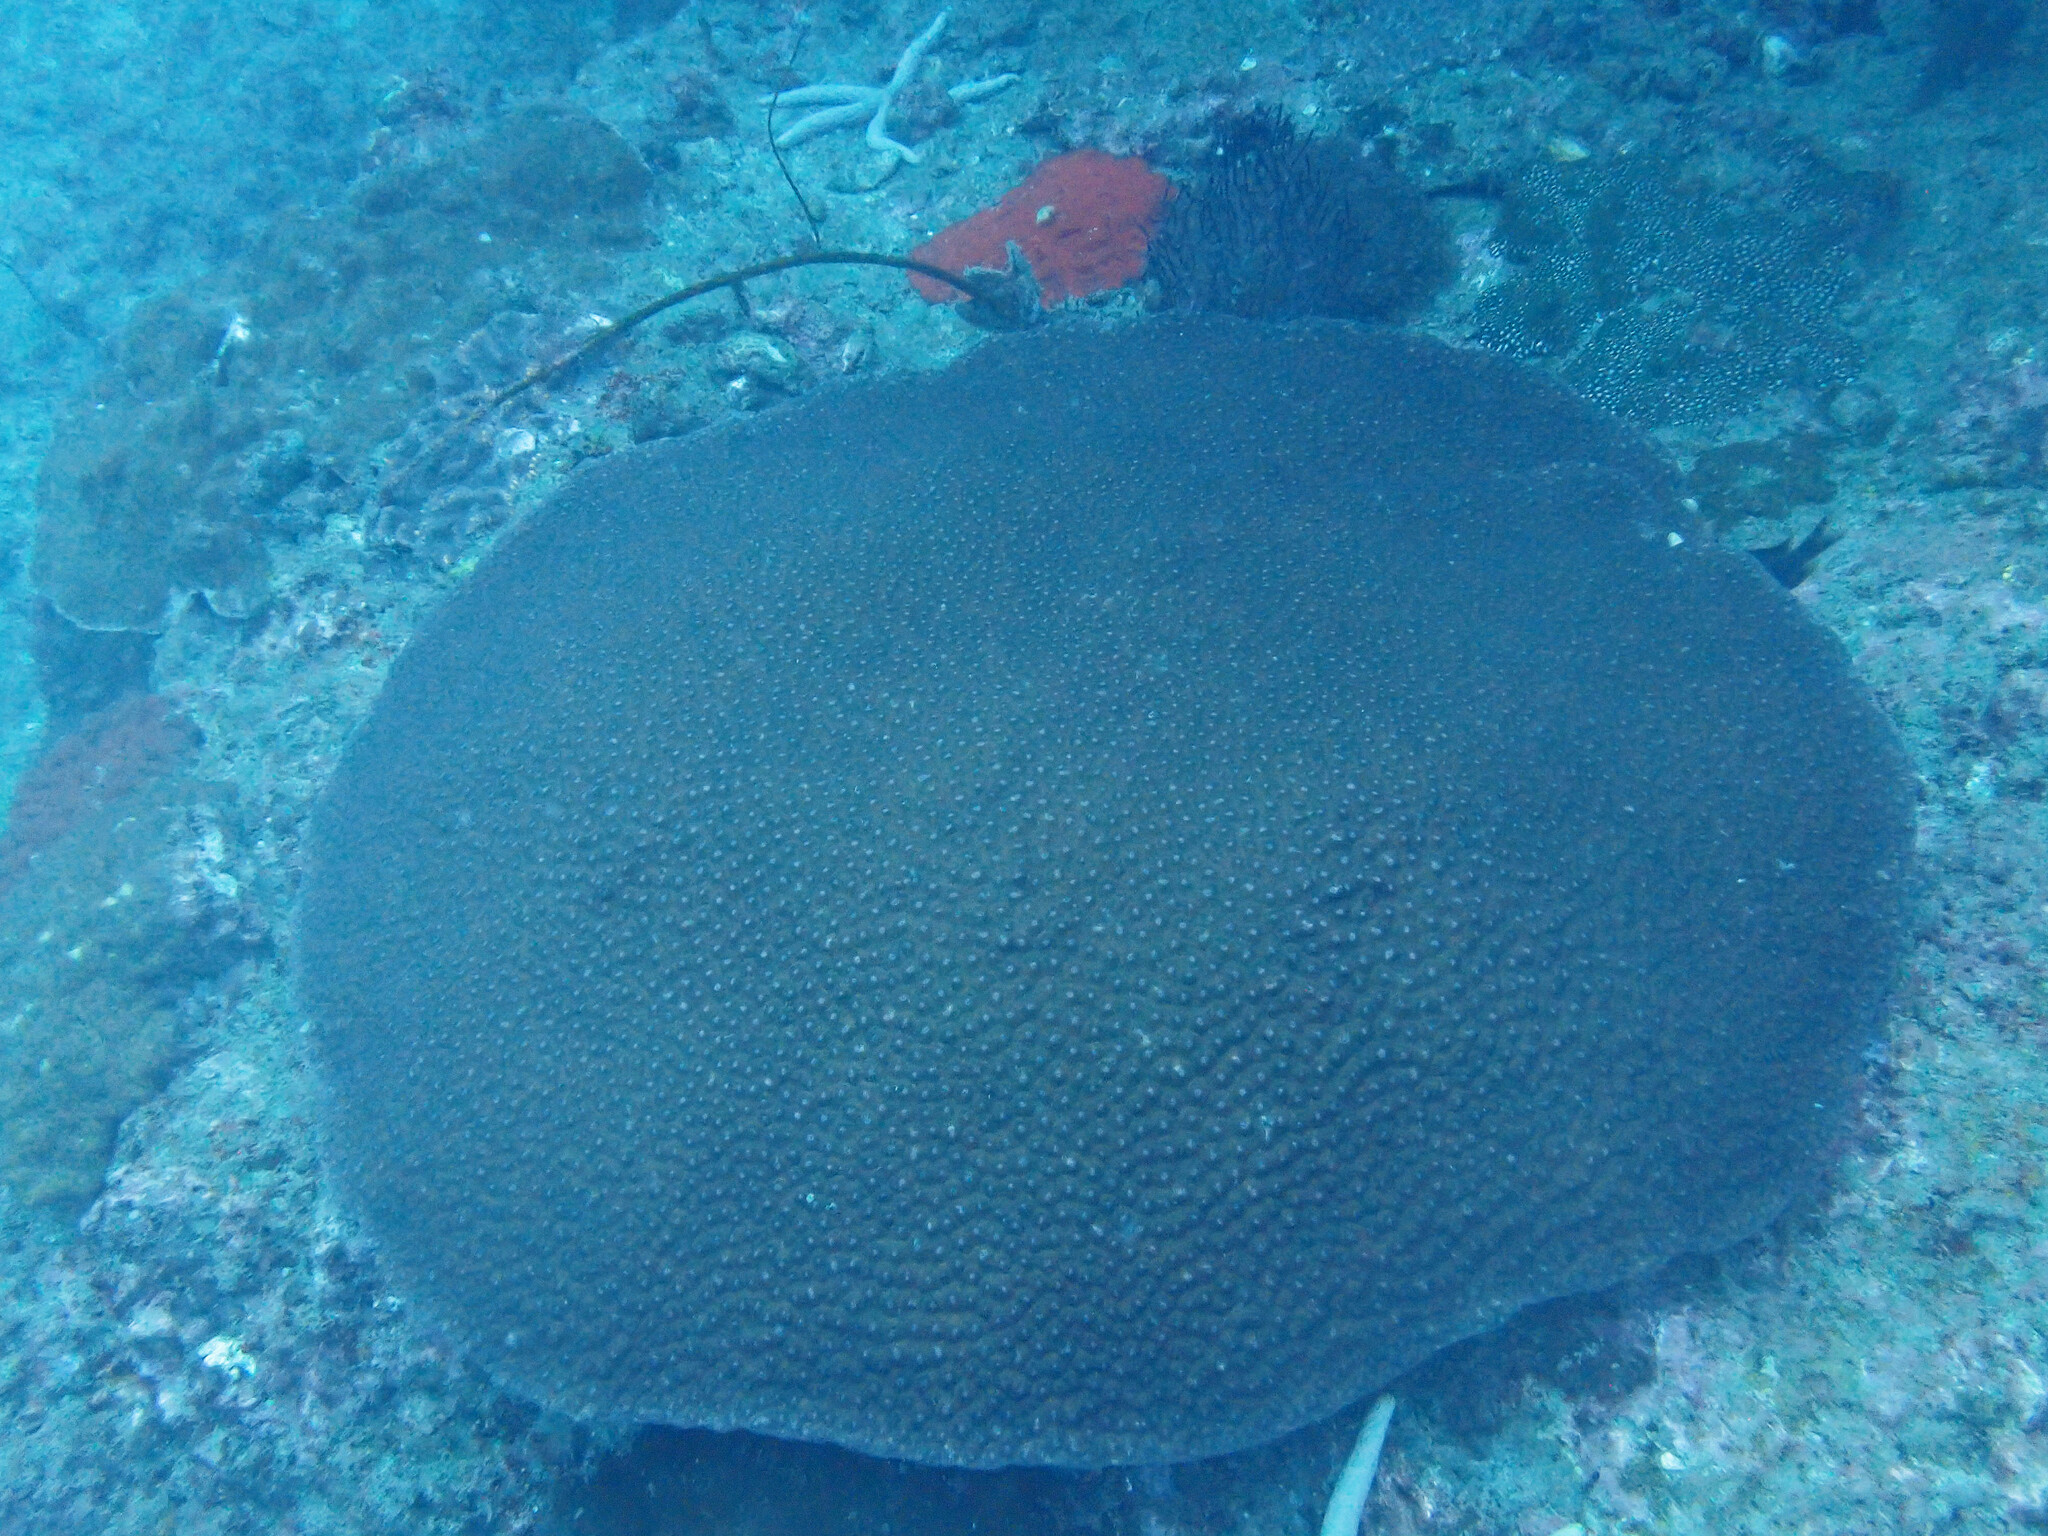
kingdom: Animalia
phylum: Cnidaria
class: Anthozoa
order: Scleractinia
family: Diploastraeidae
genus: Diploastrea
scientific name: Diploastrea heliopora
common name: Double-star coral
